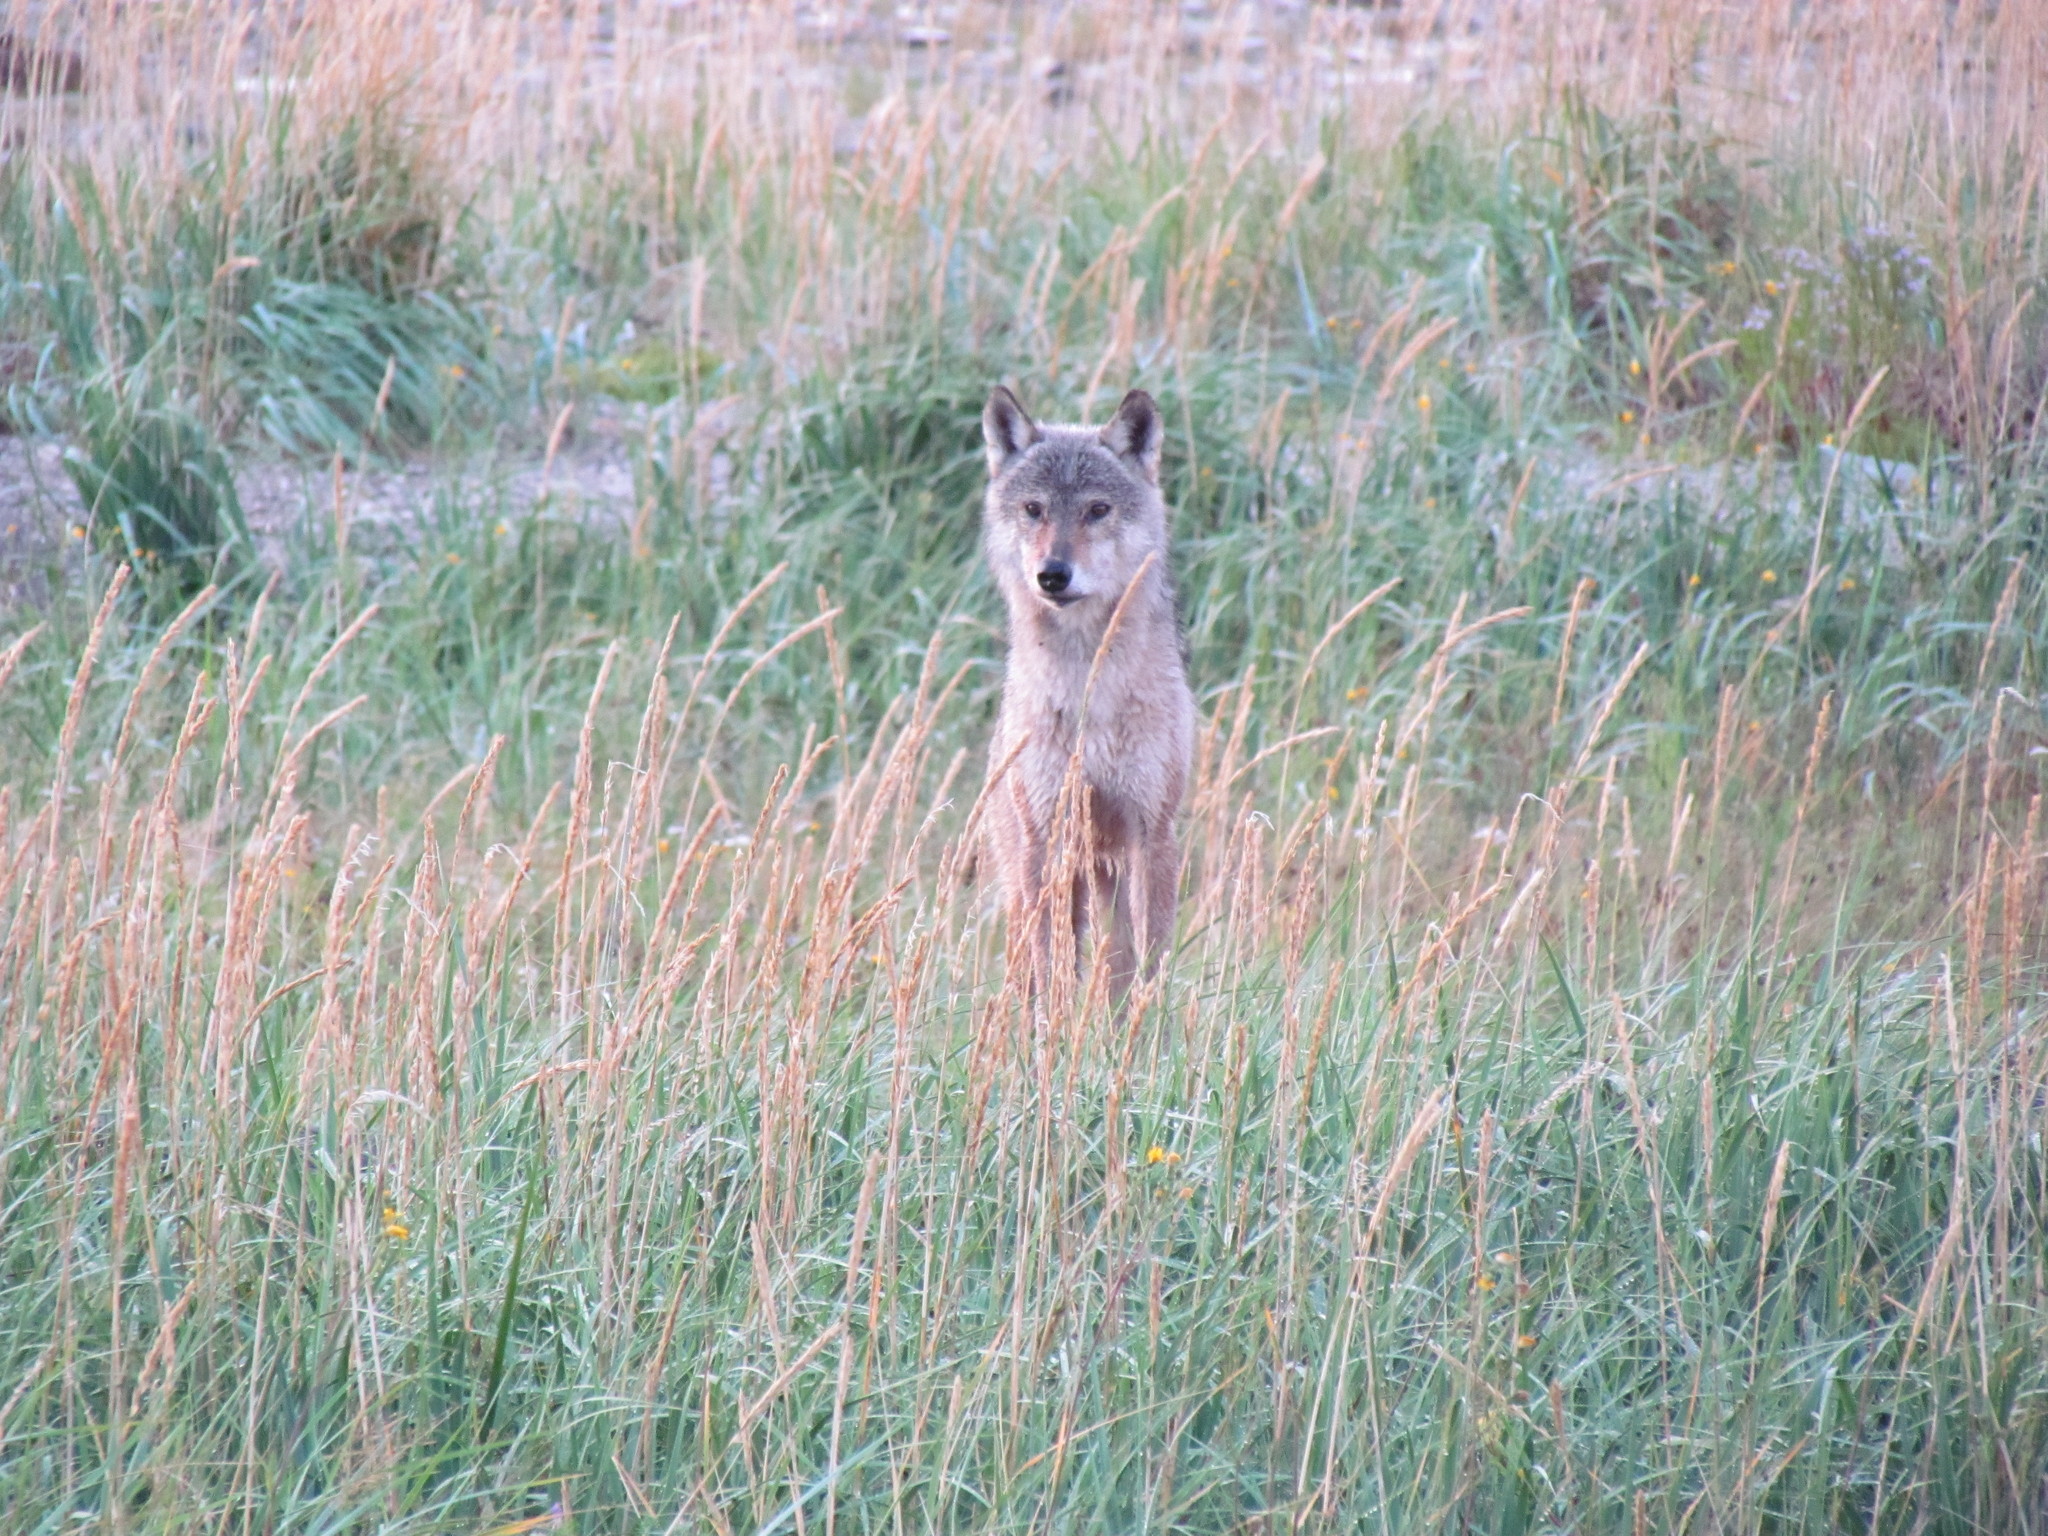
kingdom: Animalia
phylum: Chordata
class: Mammalia
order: Carnivora
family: Canidae
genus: Canis
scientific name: Canis lupus
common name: Gray wolf
